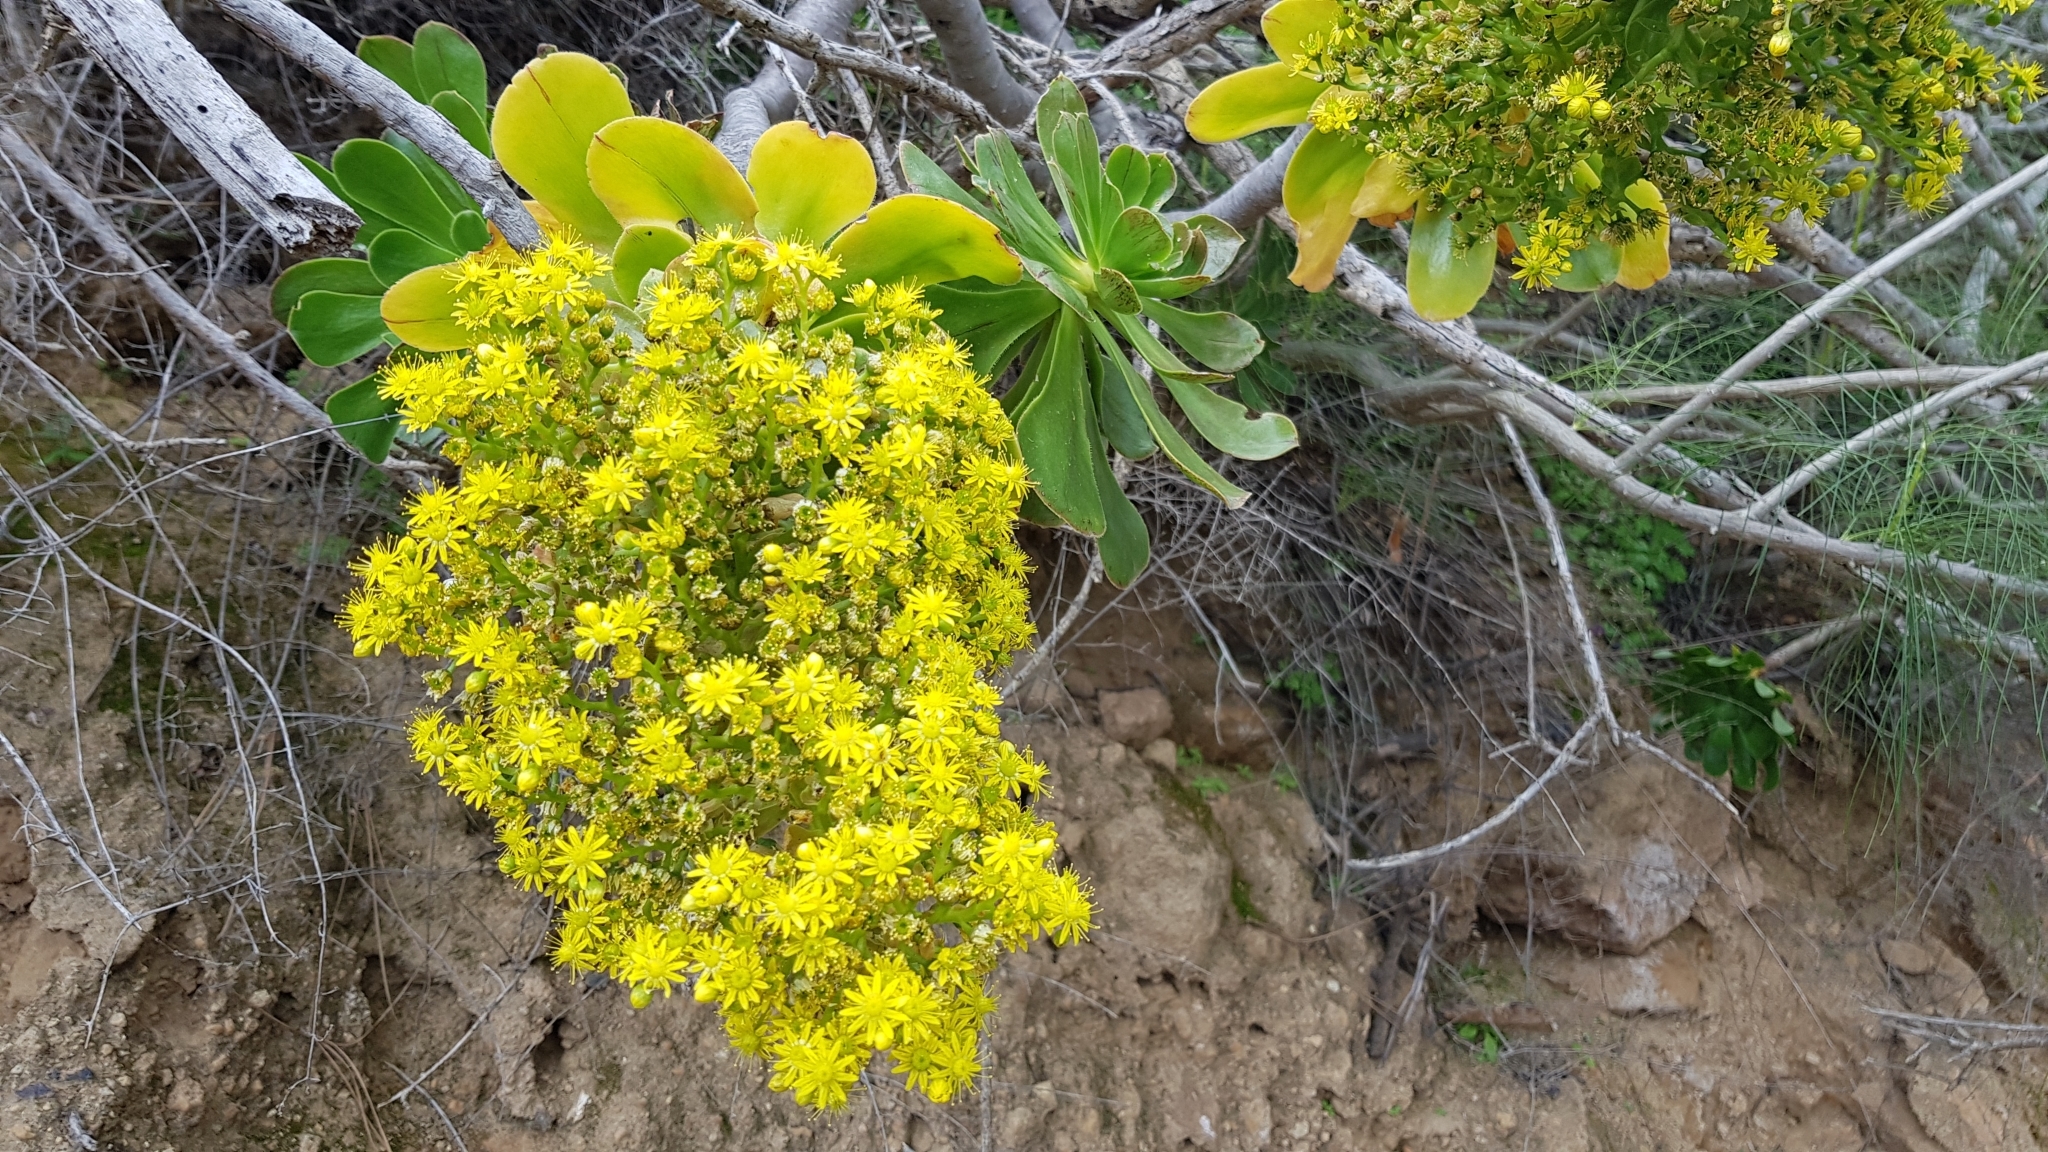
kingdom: Plantae
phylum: Tracheophyta
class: Magnoliopsida
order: Saxifragales
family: Crassulaceae
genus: Aeonium
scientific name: Aeonium arboreum
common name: Tree aeonium
